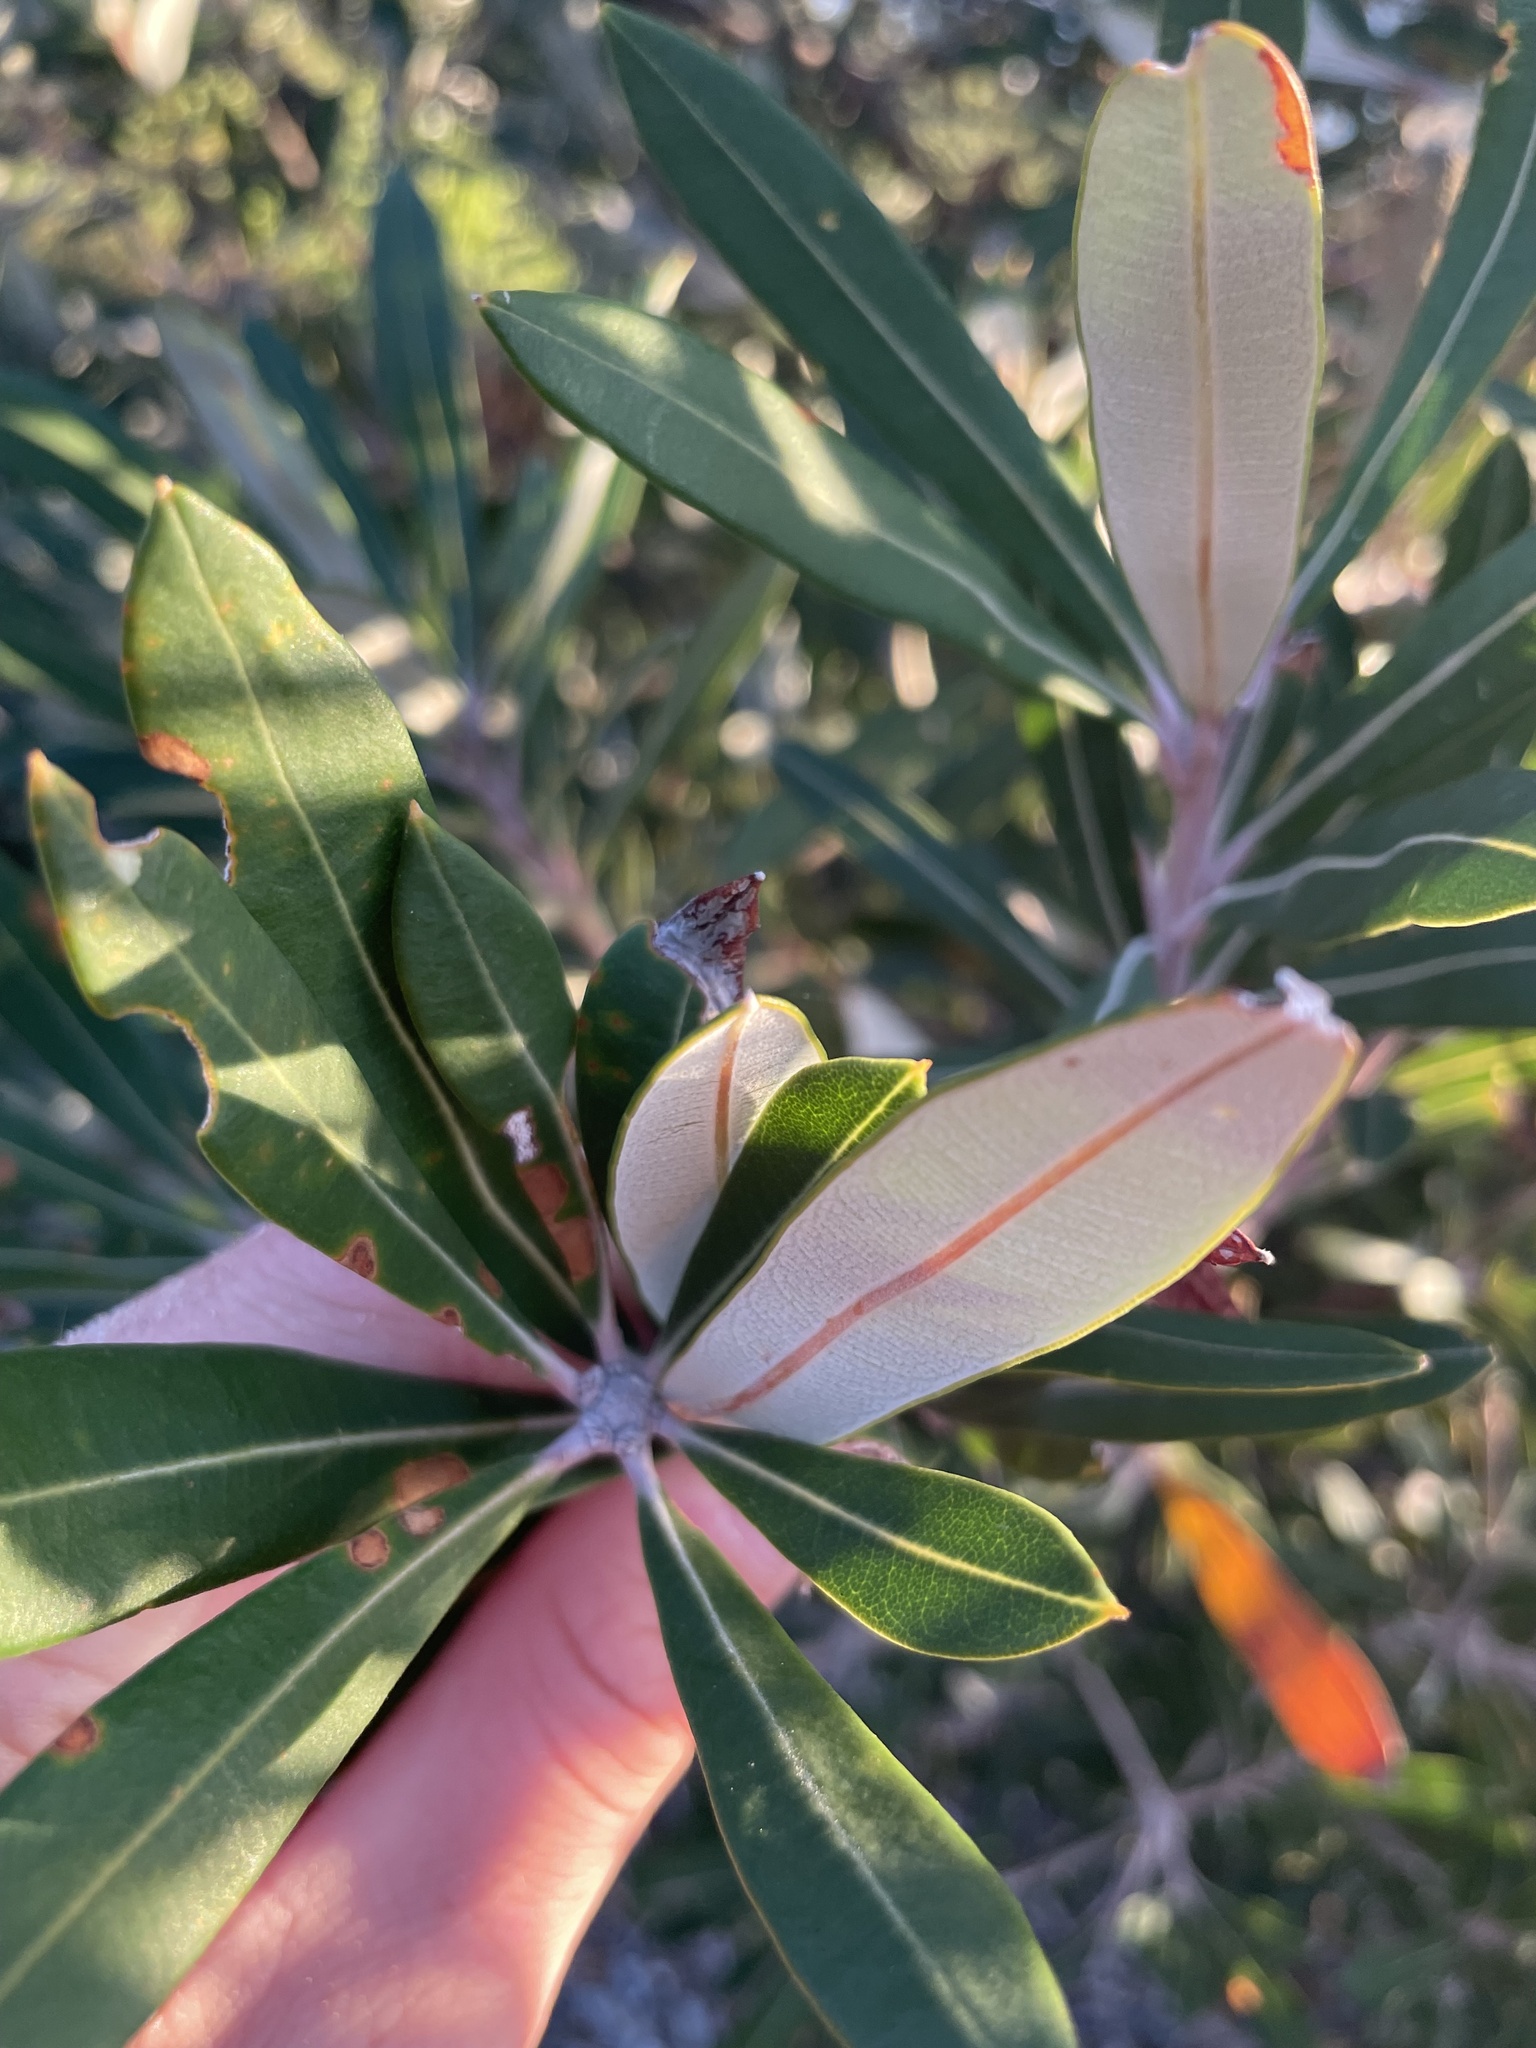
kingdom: Plantae
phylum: Tracheophyta
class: Magnoliopsida
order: Proteales
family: Proteaceae
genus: Banksia
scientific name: Banksia integrifolia
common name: White-honeysuckle
